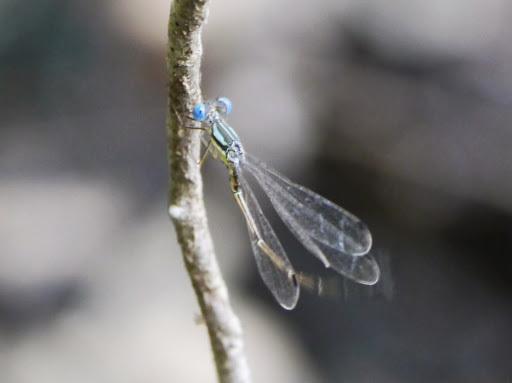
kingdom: Animalia
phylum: Arthropoda
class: Insecta
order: Odonata
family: Lestidae
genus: Lestes
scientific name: Lestes rectangularis
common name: Slender spreadwing
